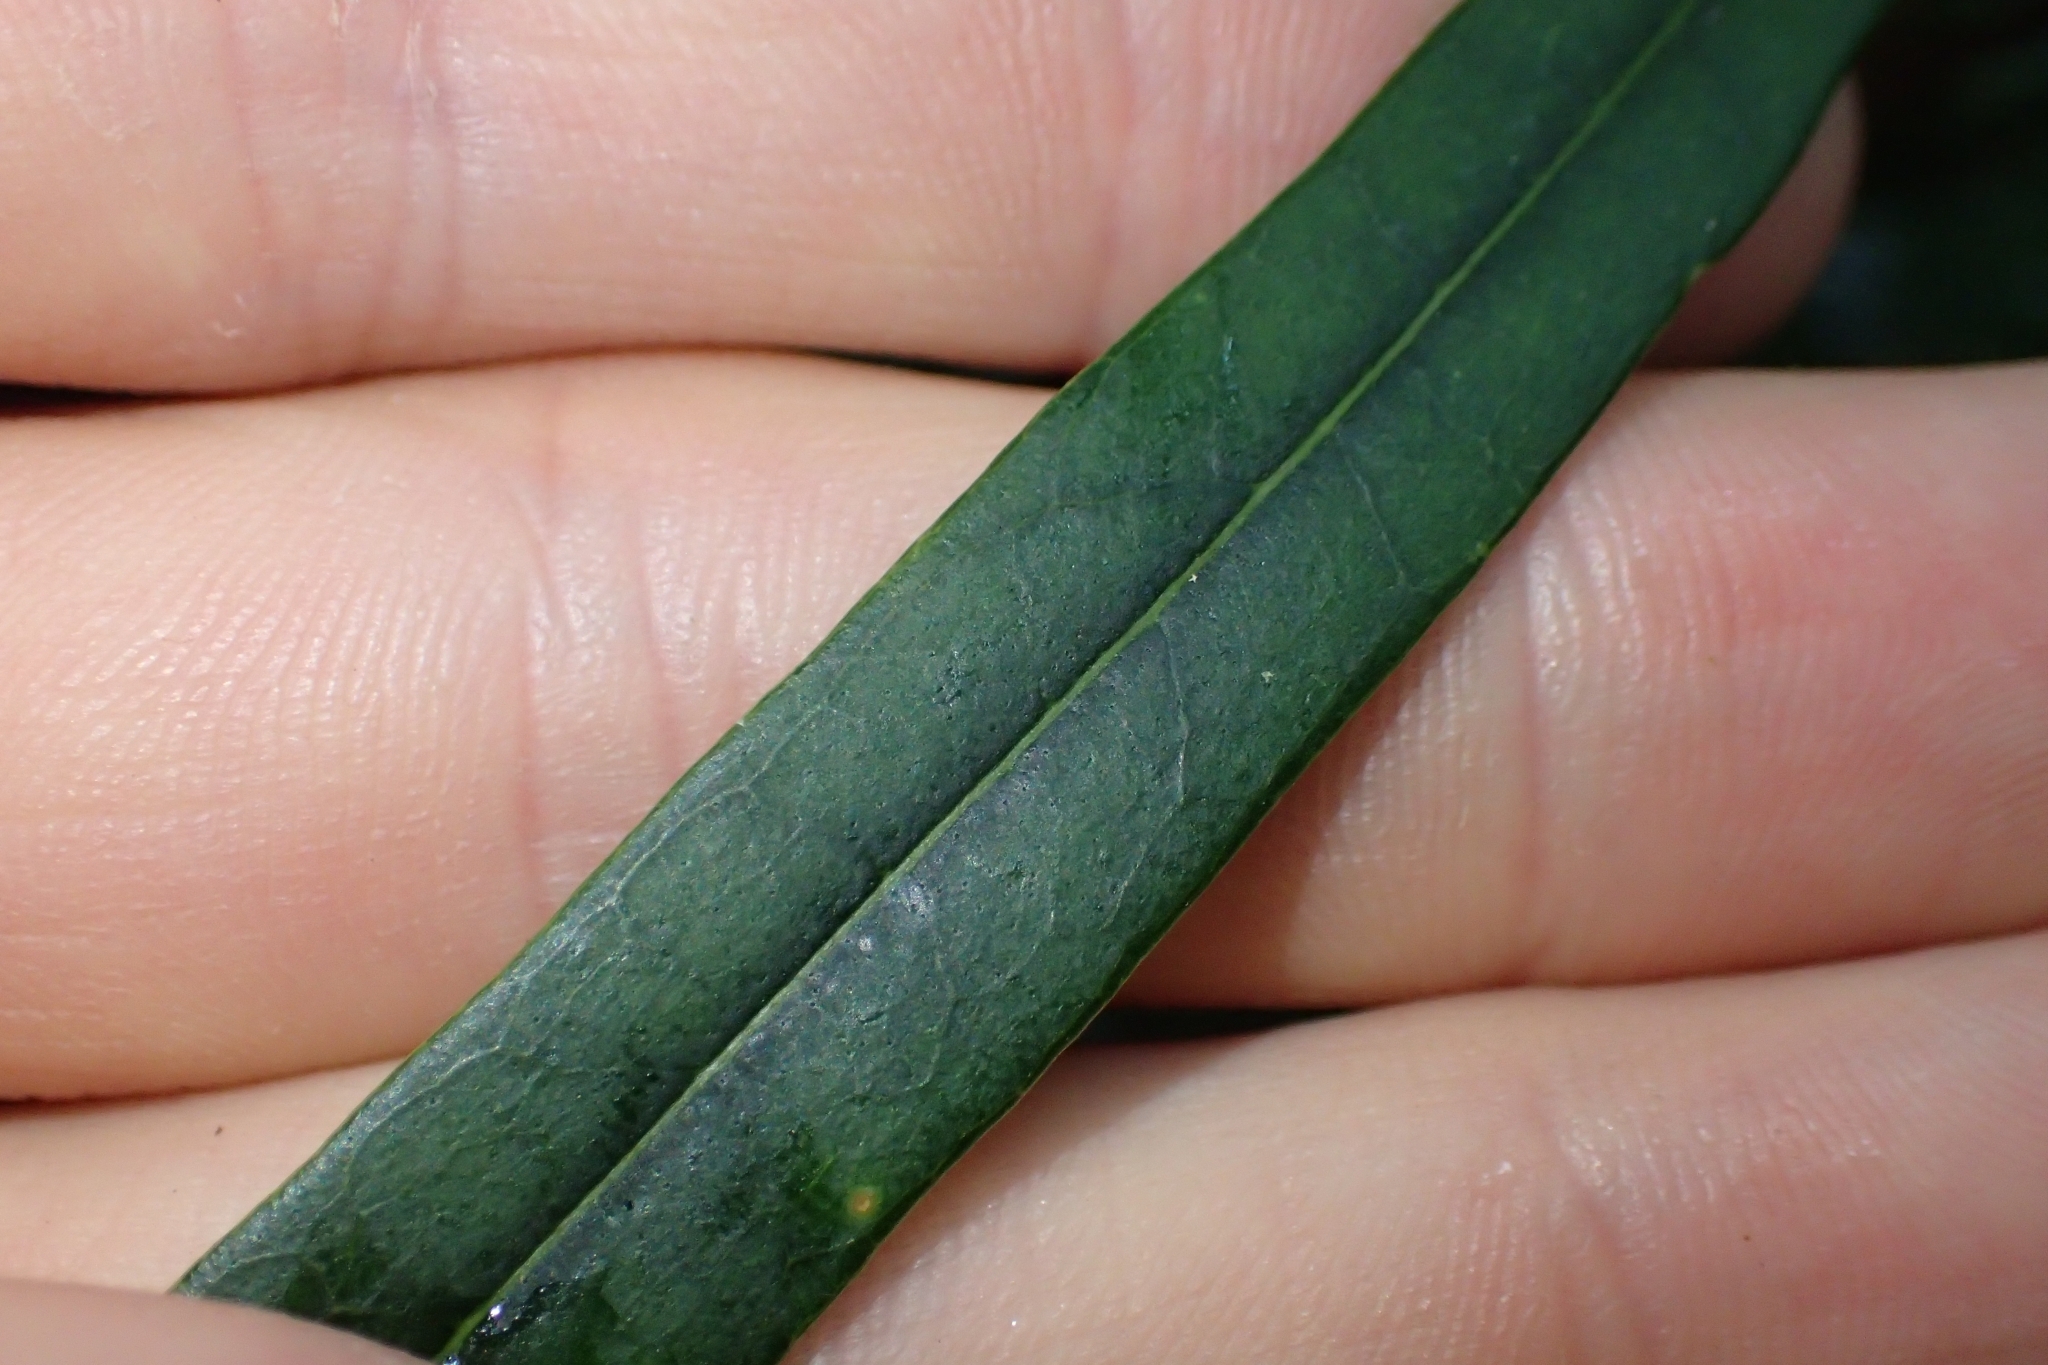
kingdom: Plantae
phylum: Tracheophyta
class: Magnoliopsida
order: Lamiales
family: Oleaceae
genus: Nestegis
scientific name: Nestegis cunninghamii
